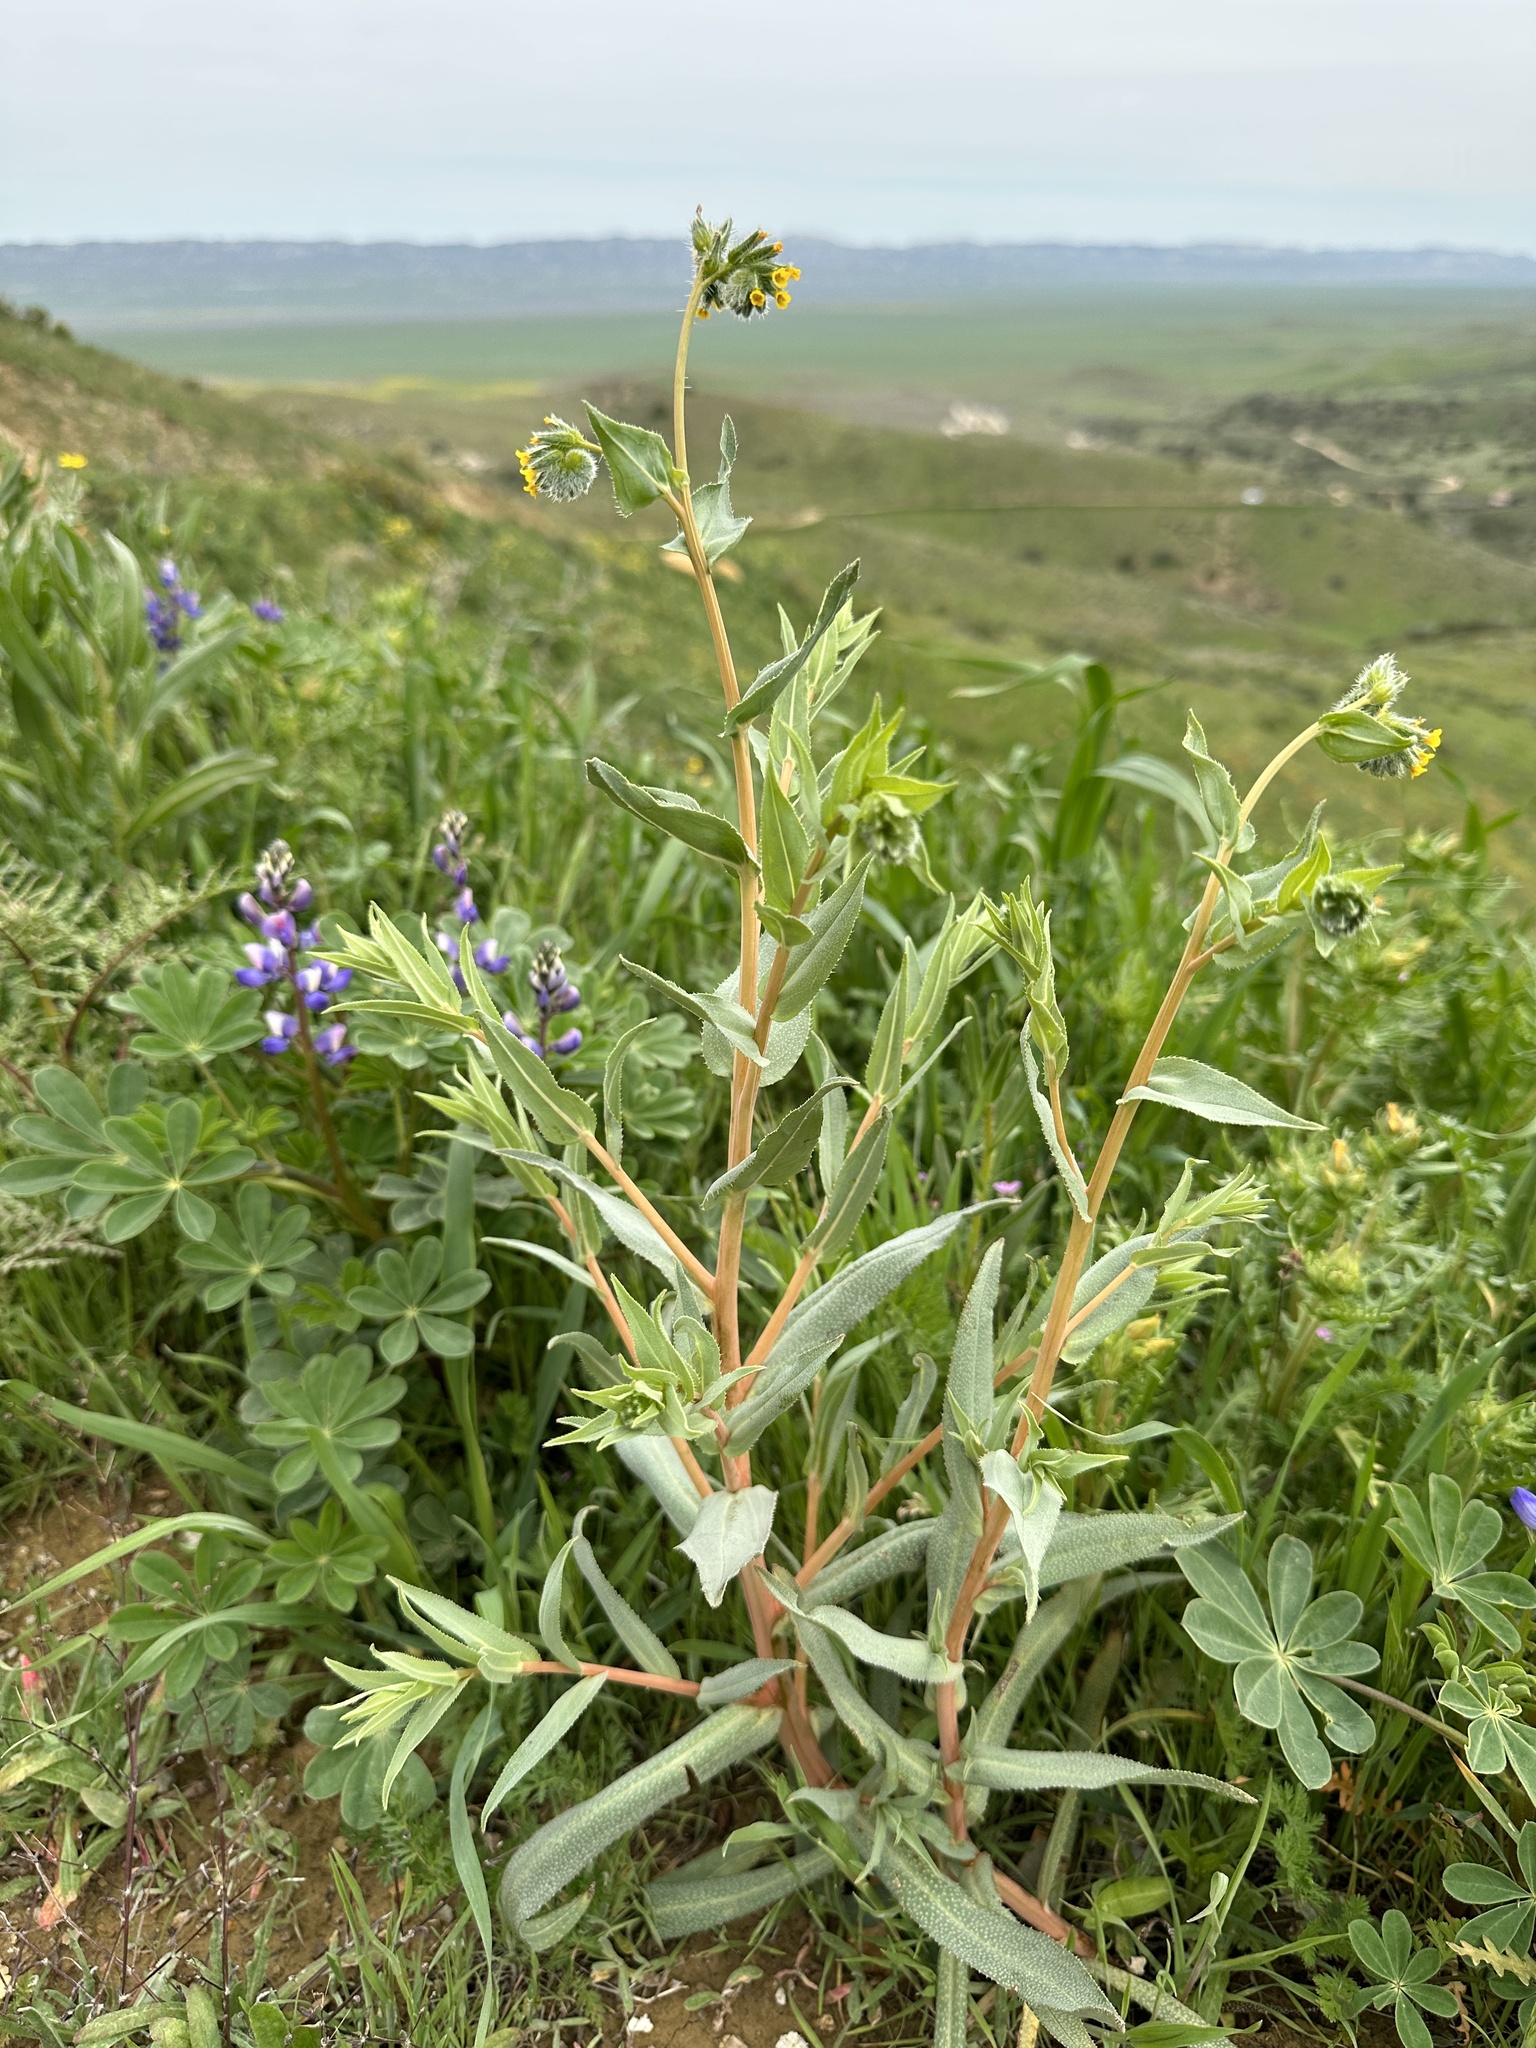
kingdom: Plantae
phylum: Tracheophyta
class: Magnoliopsida
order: Boraginales
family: Boraginaceae
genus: Amsinckia
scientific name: Amsinckia vernicosa
